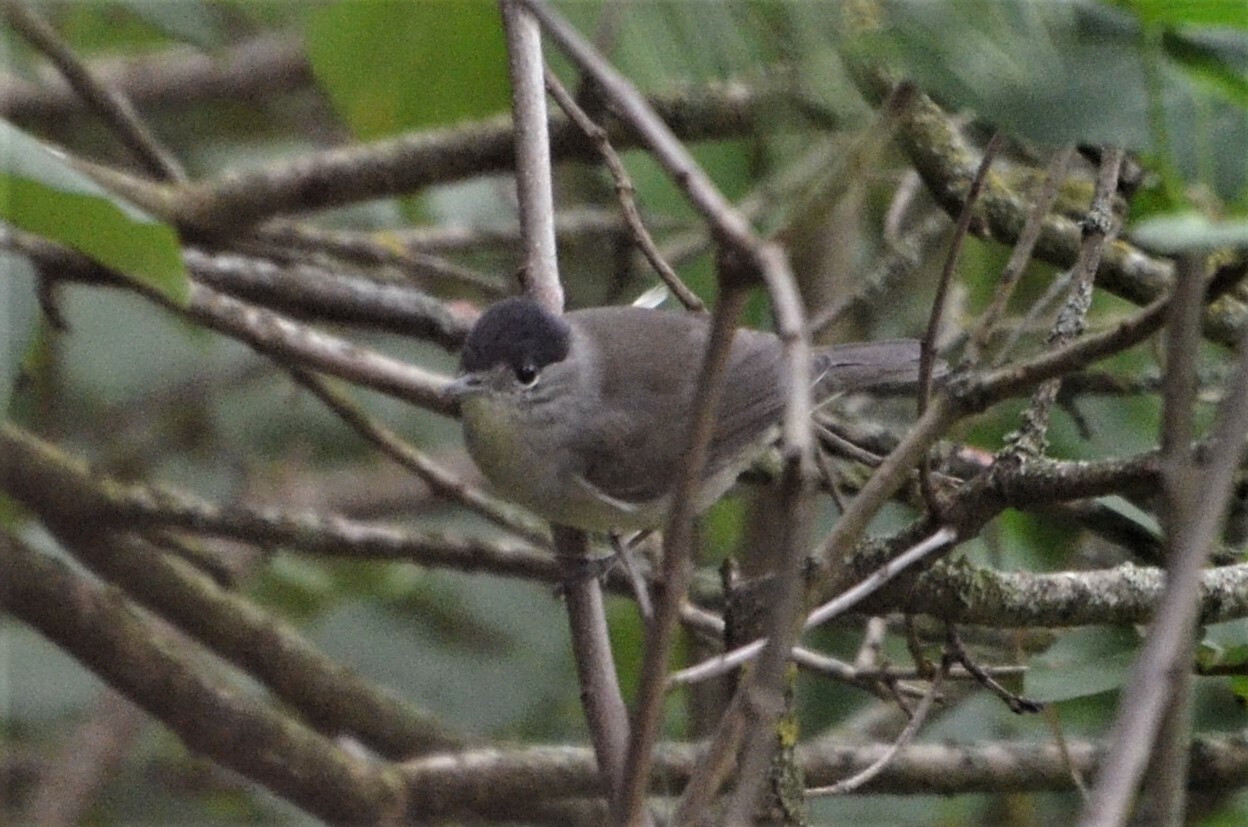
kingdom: Animalia
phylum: Chordata
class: Aves
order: Passeriformes
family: Sylviidae
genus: Sylvia
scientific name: Sylvia atricapilla
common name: Eurasian blackcap
